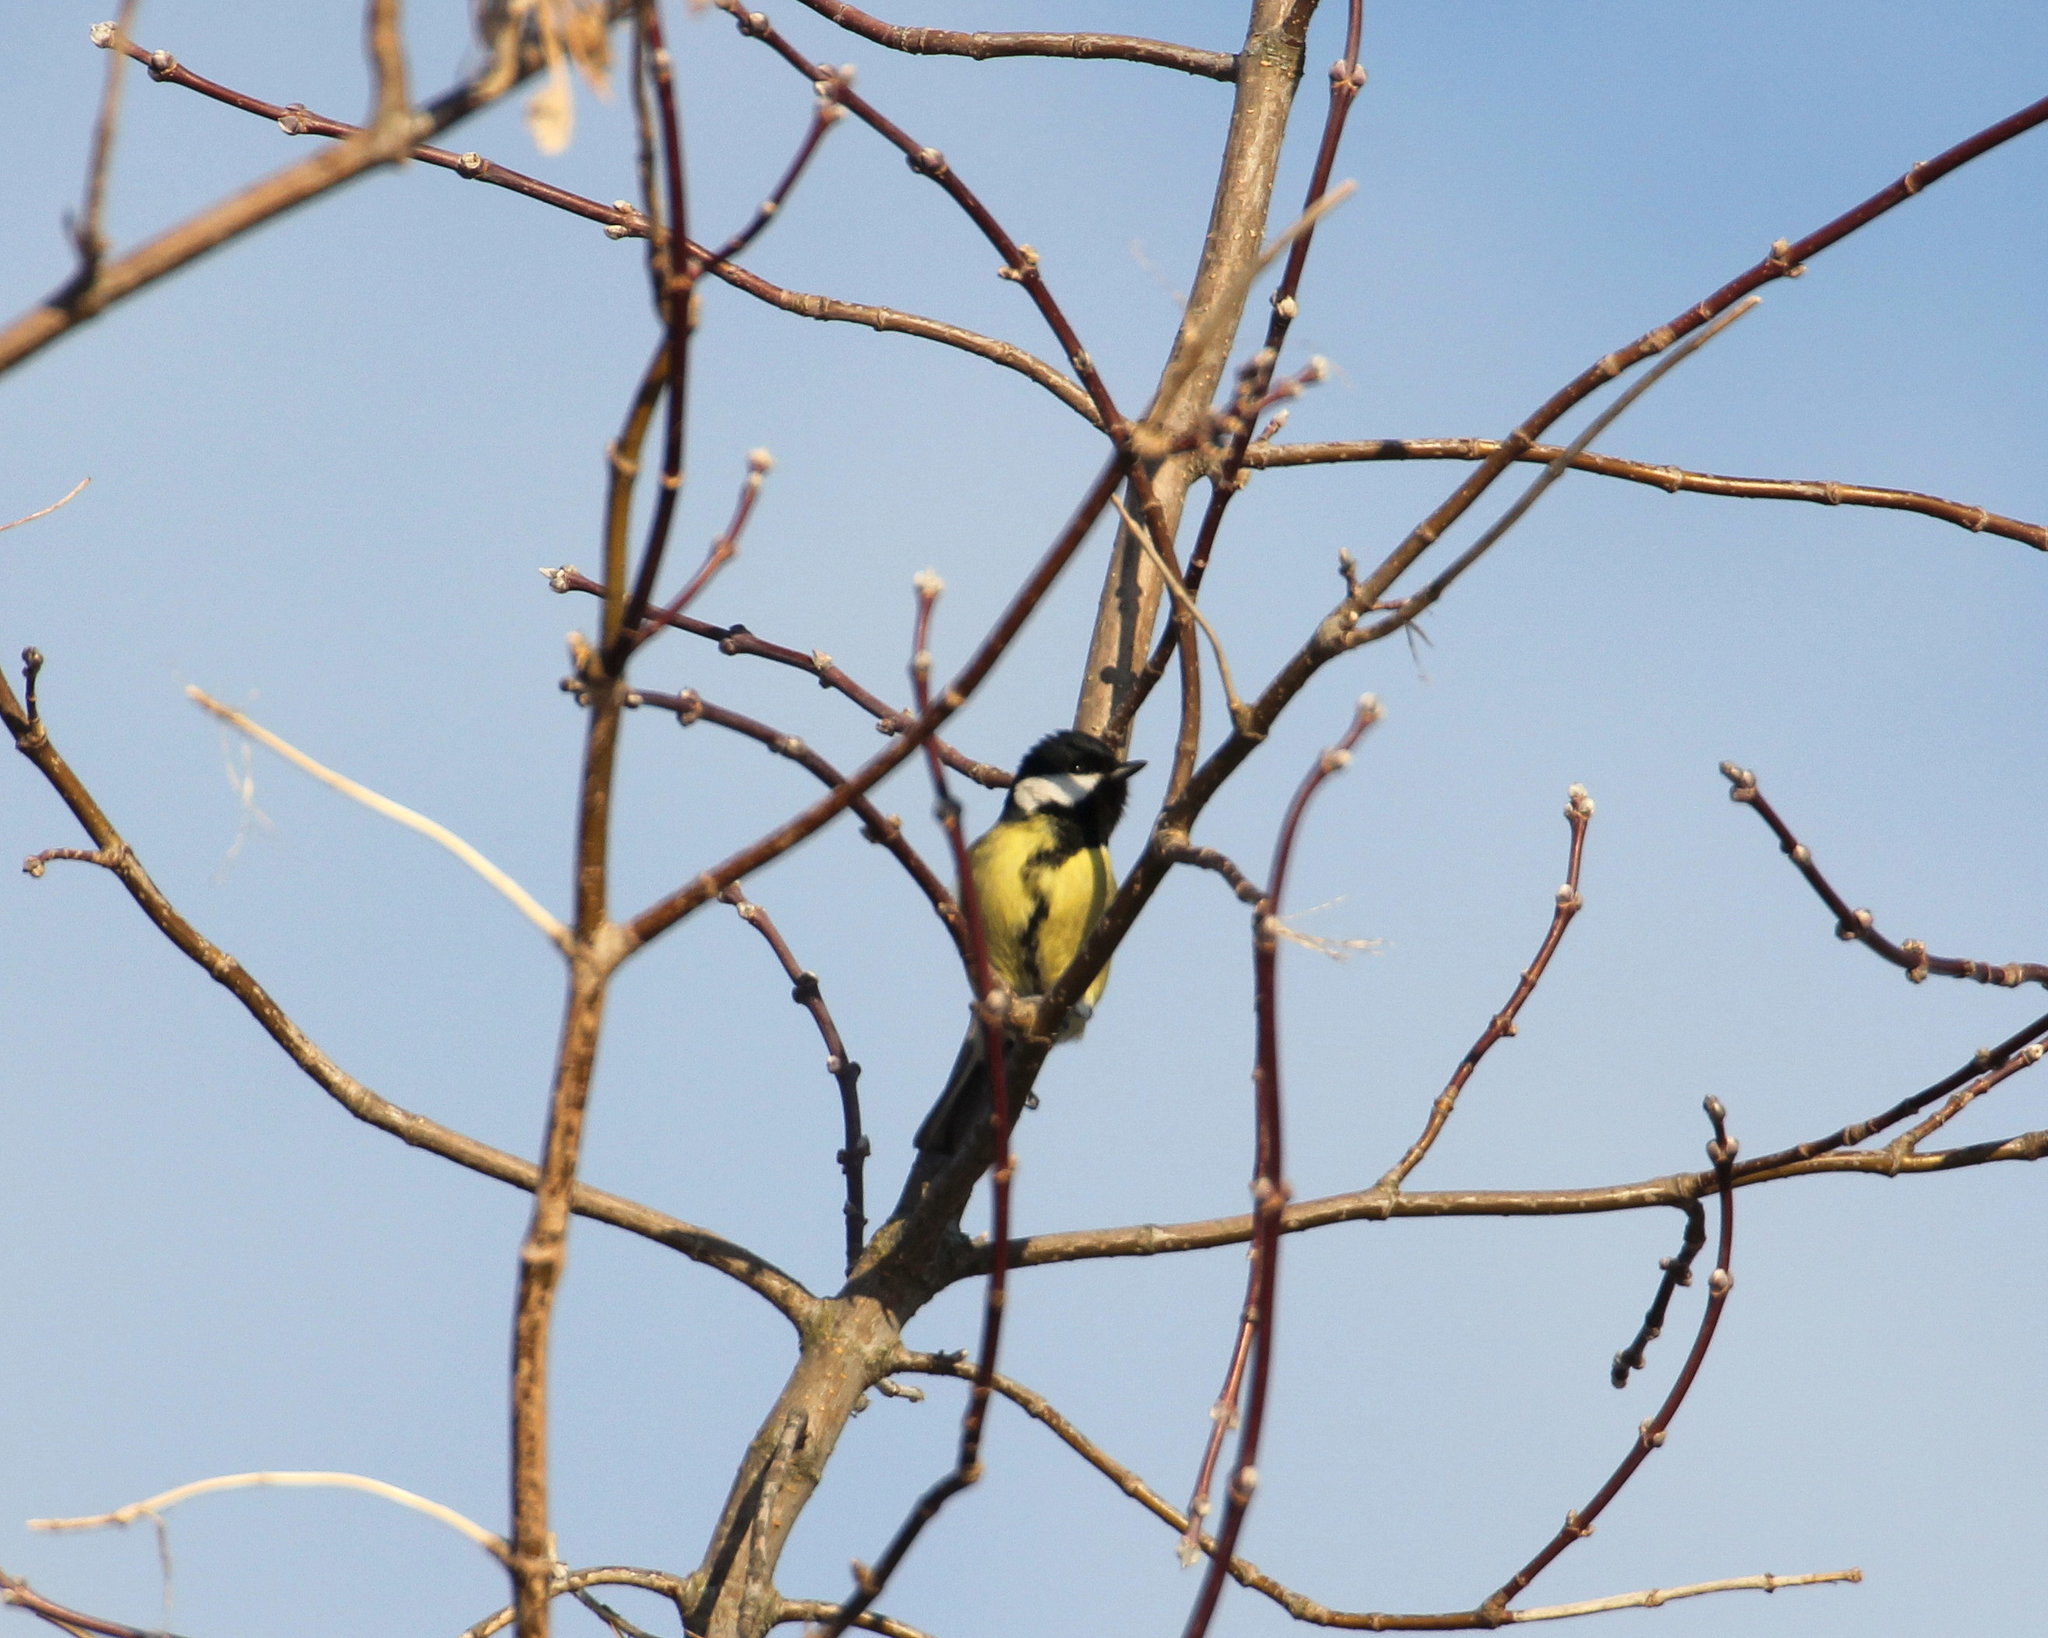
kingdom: Animalia
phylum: Chordata
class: Aves
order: Passeriformes
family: Paridae
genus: Parus
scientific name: Parus major
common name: Great tit
